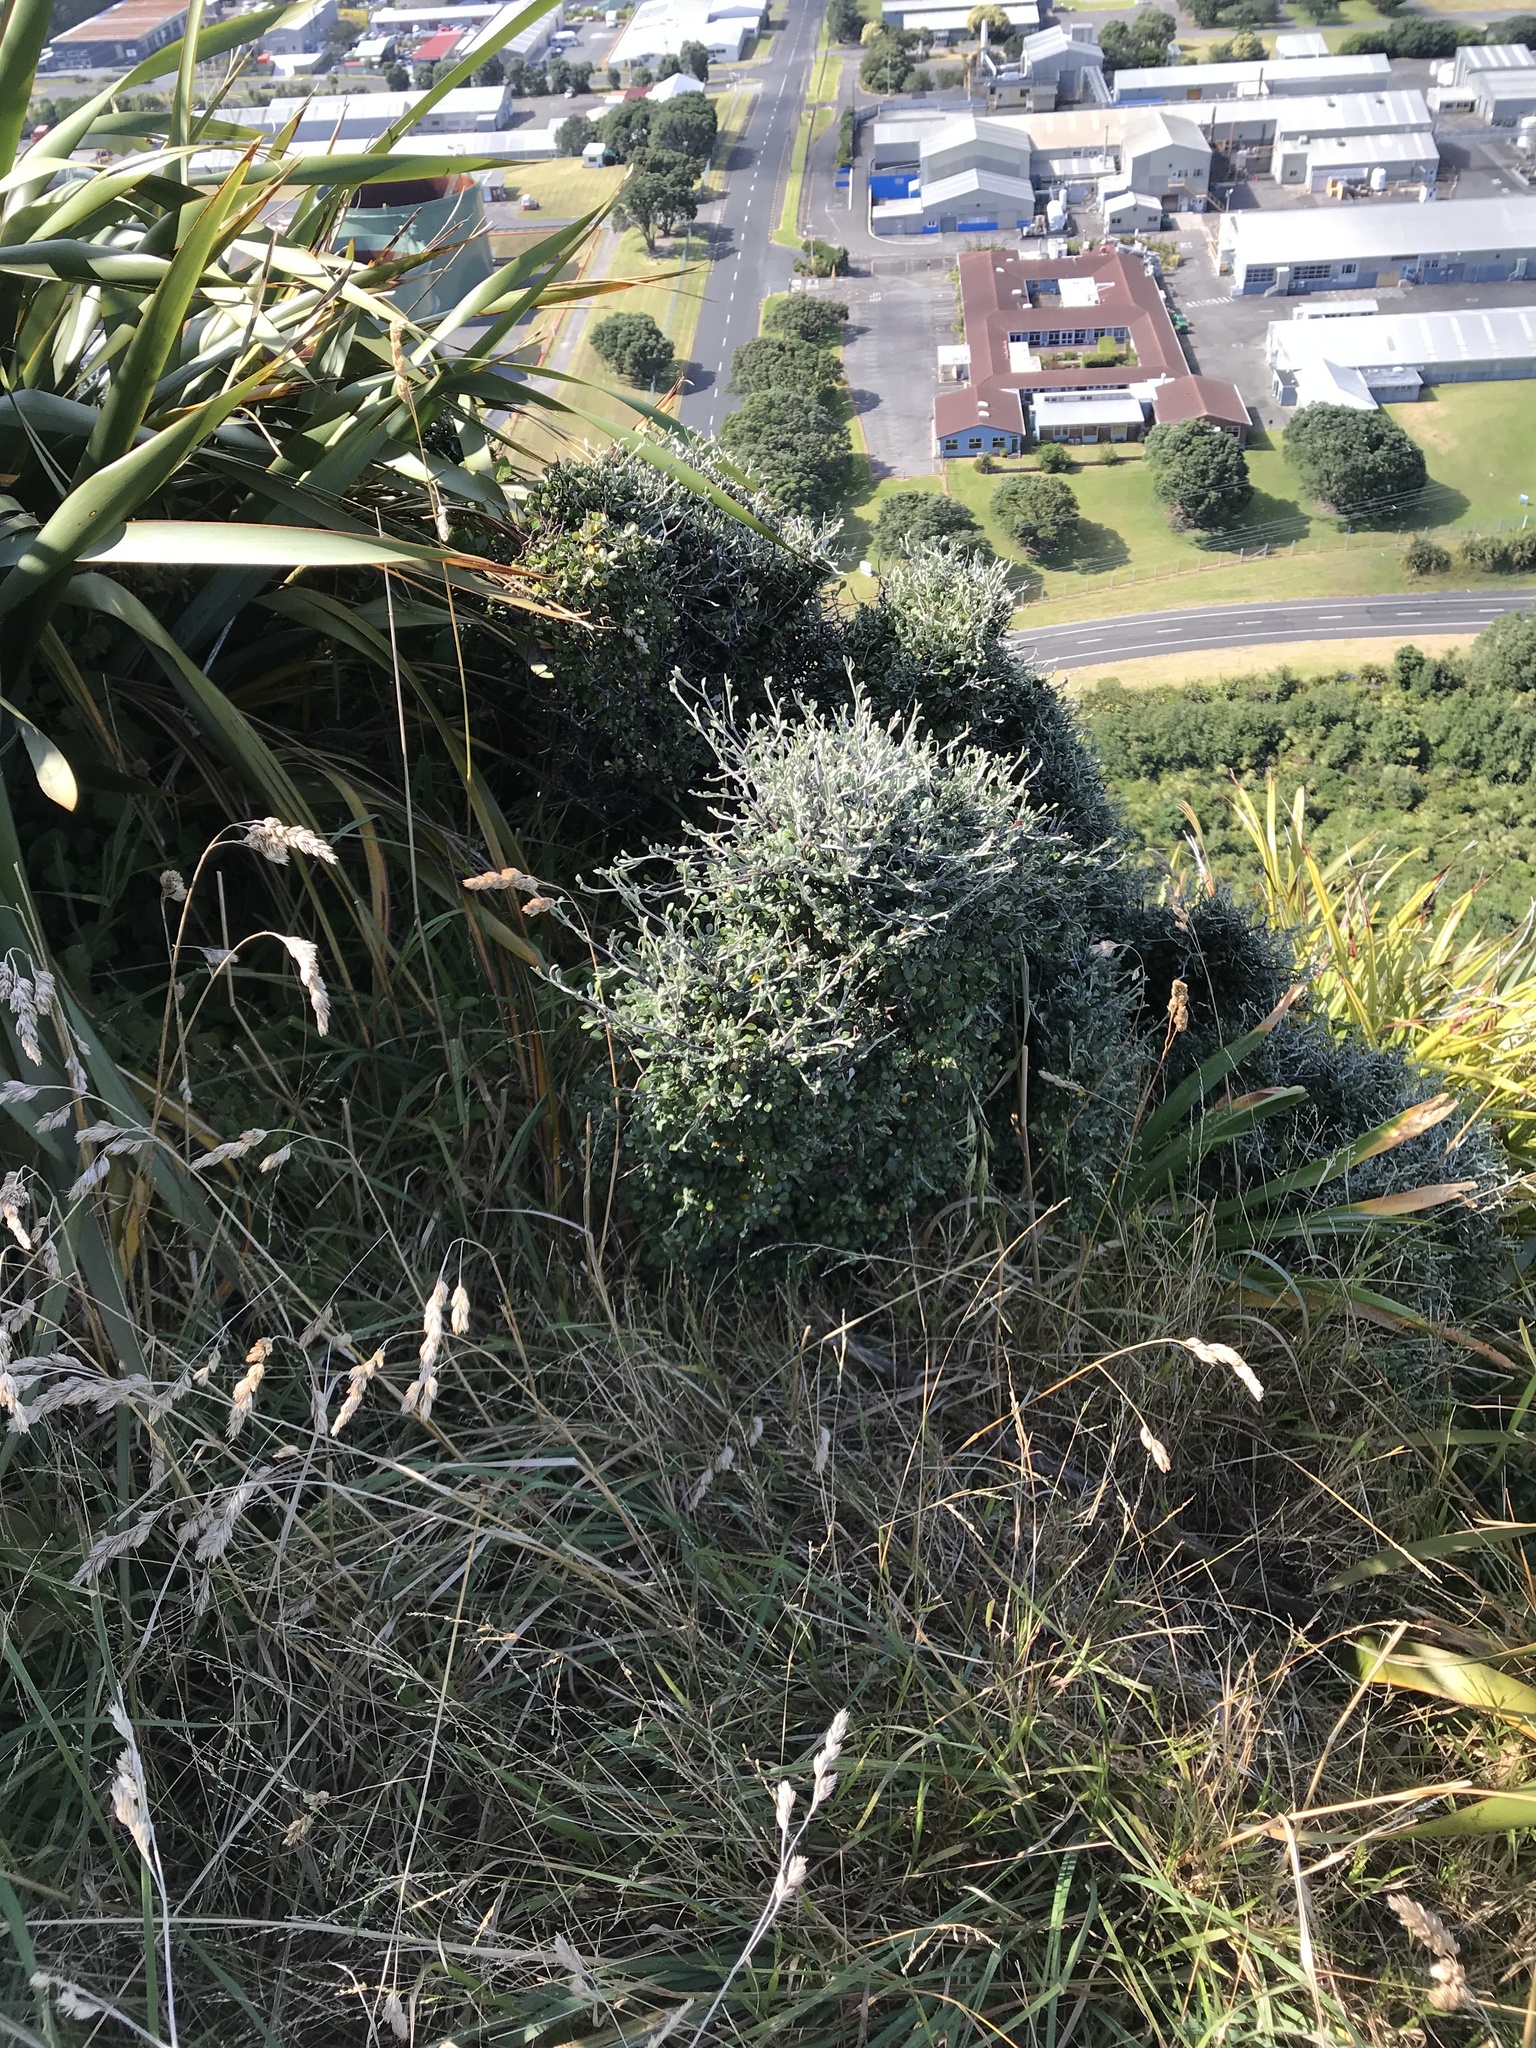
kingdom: Plantae
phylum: Tracheophyta
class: Magnoliopsida
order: Asterales
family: Argophyllaceae
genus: Corokia
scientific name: Corokia cotoneaster
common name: Wire nettingbush
